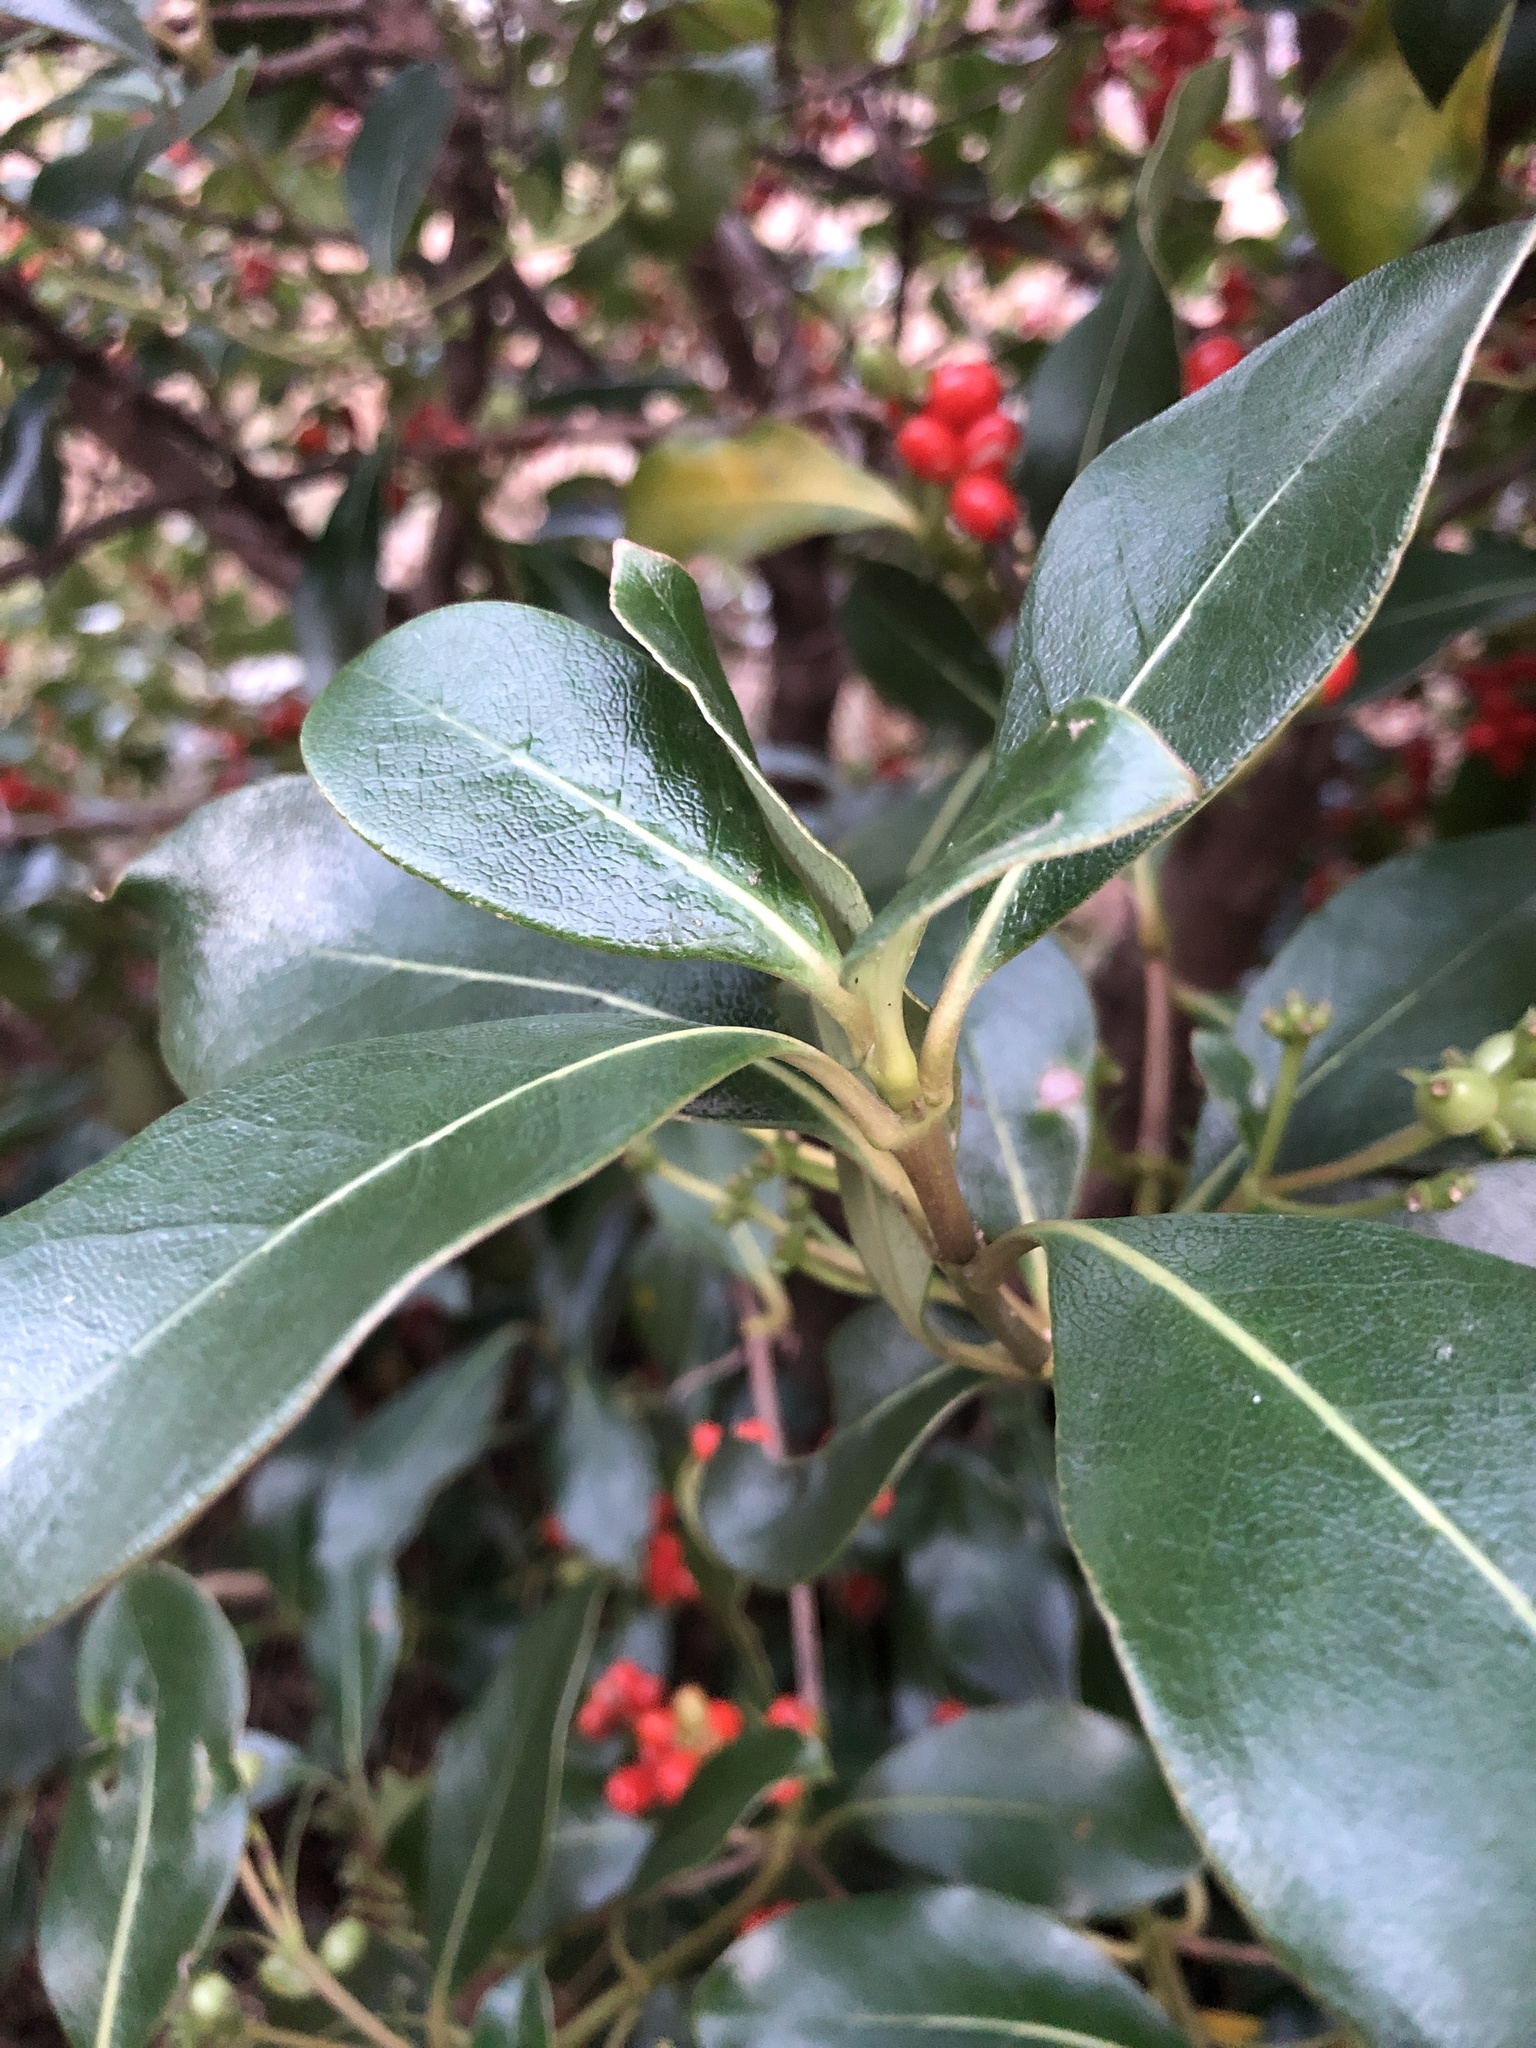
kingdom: Plantae
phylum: Tracheophyta
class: Magnoliopsida
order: Gentianales
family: Rubiaceae
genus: Coprosma
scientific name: Coprosma lucida
